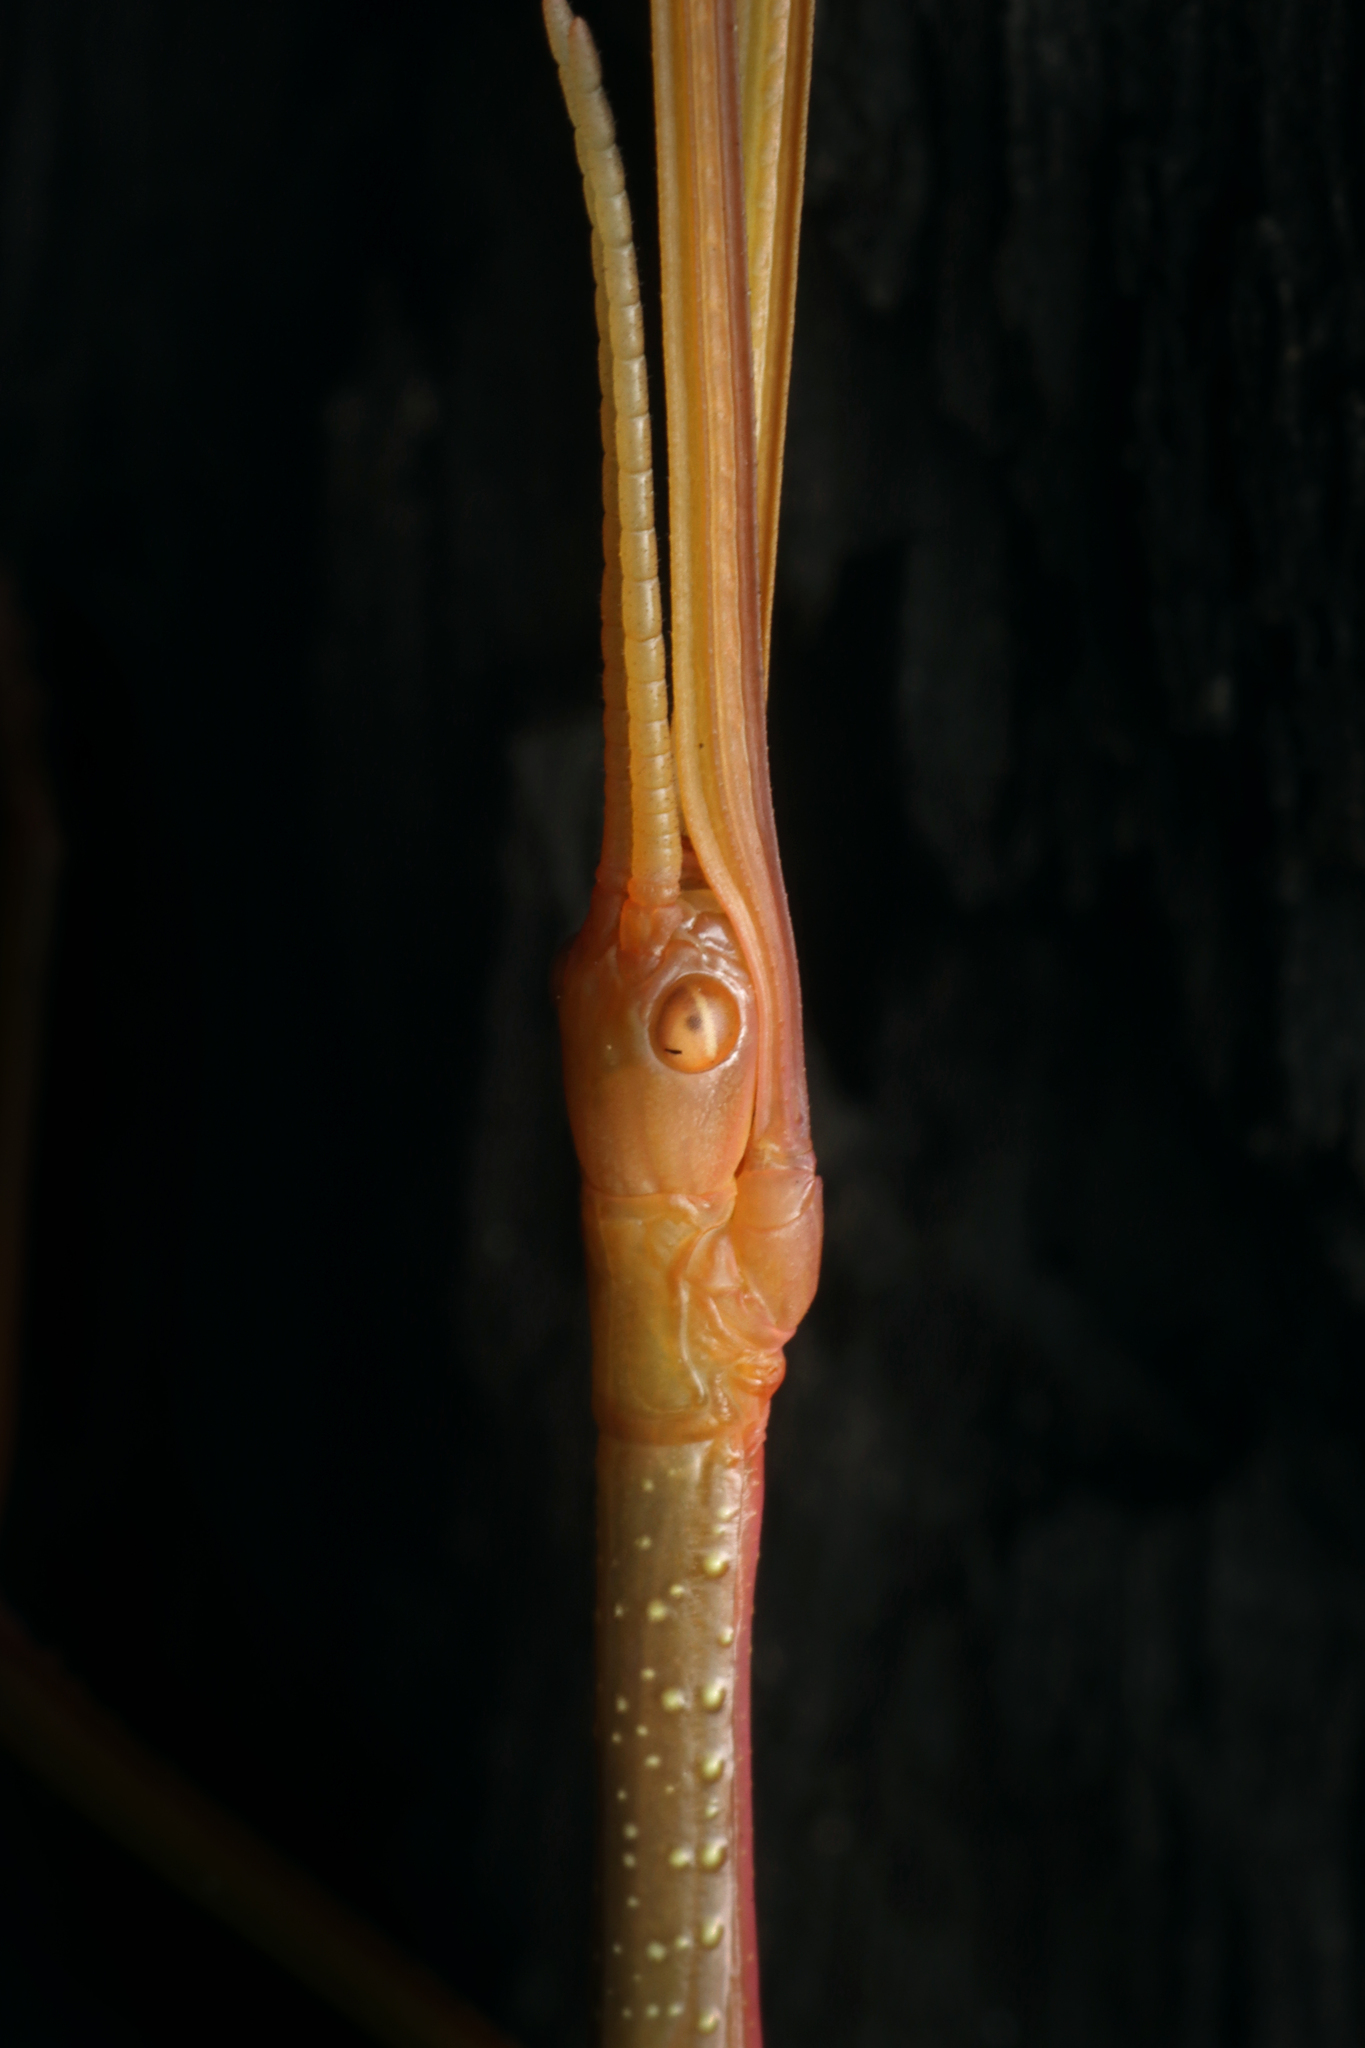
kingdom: Animalia
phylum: Arthropoda
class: Insecta
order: Phasmida
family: Phasmatidae
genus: Didymuria
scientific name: Didymuria violescens
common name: Spur-legged stick-insect
